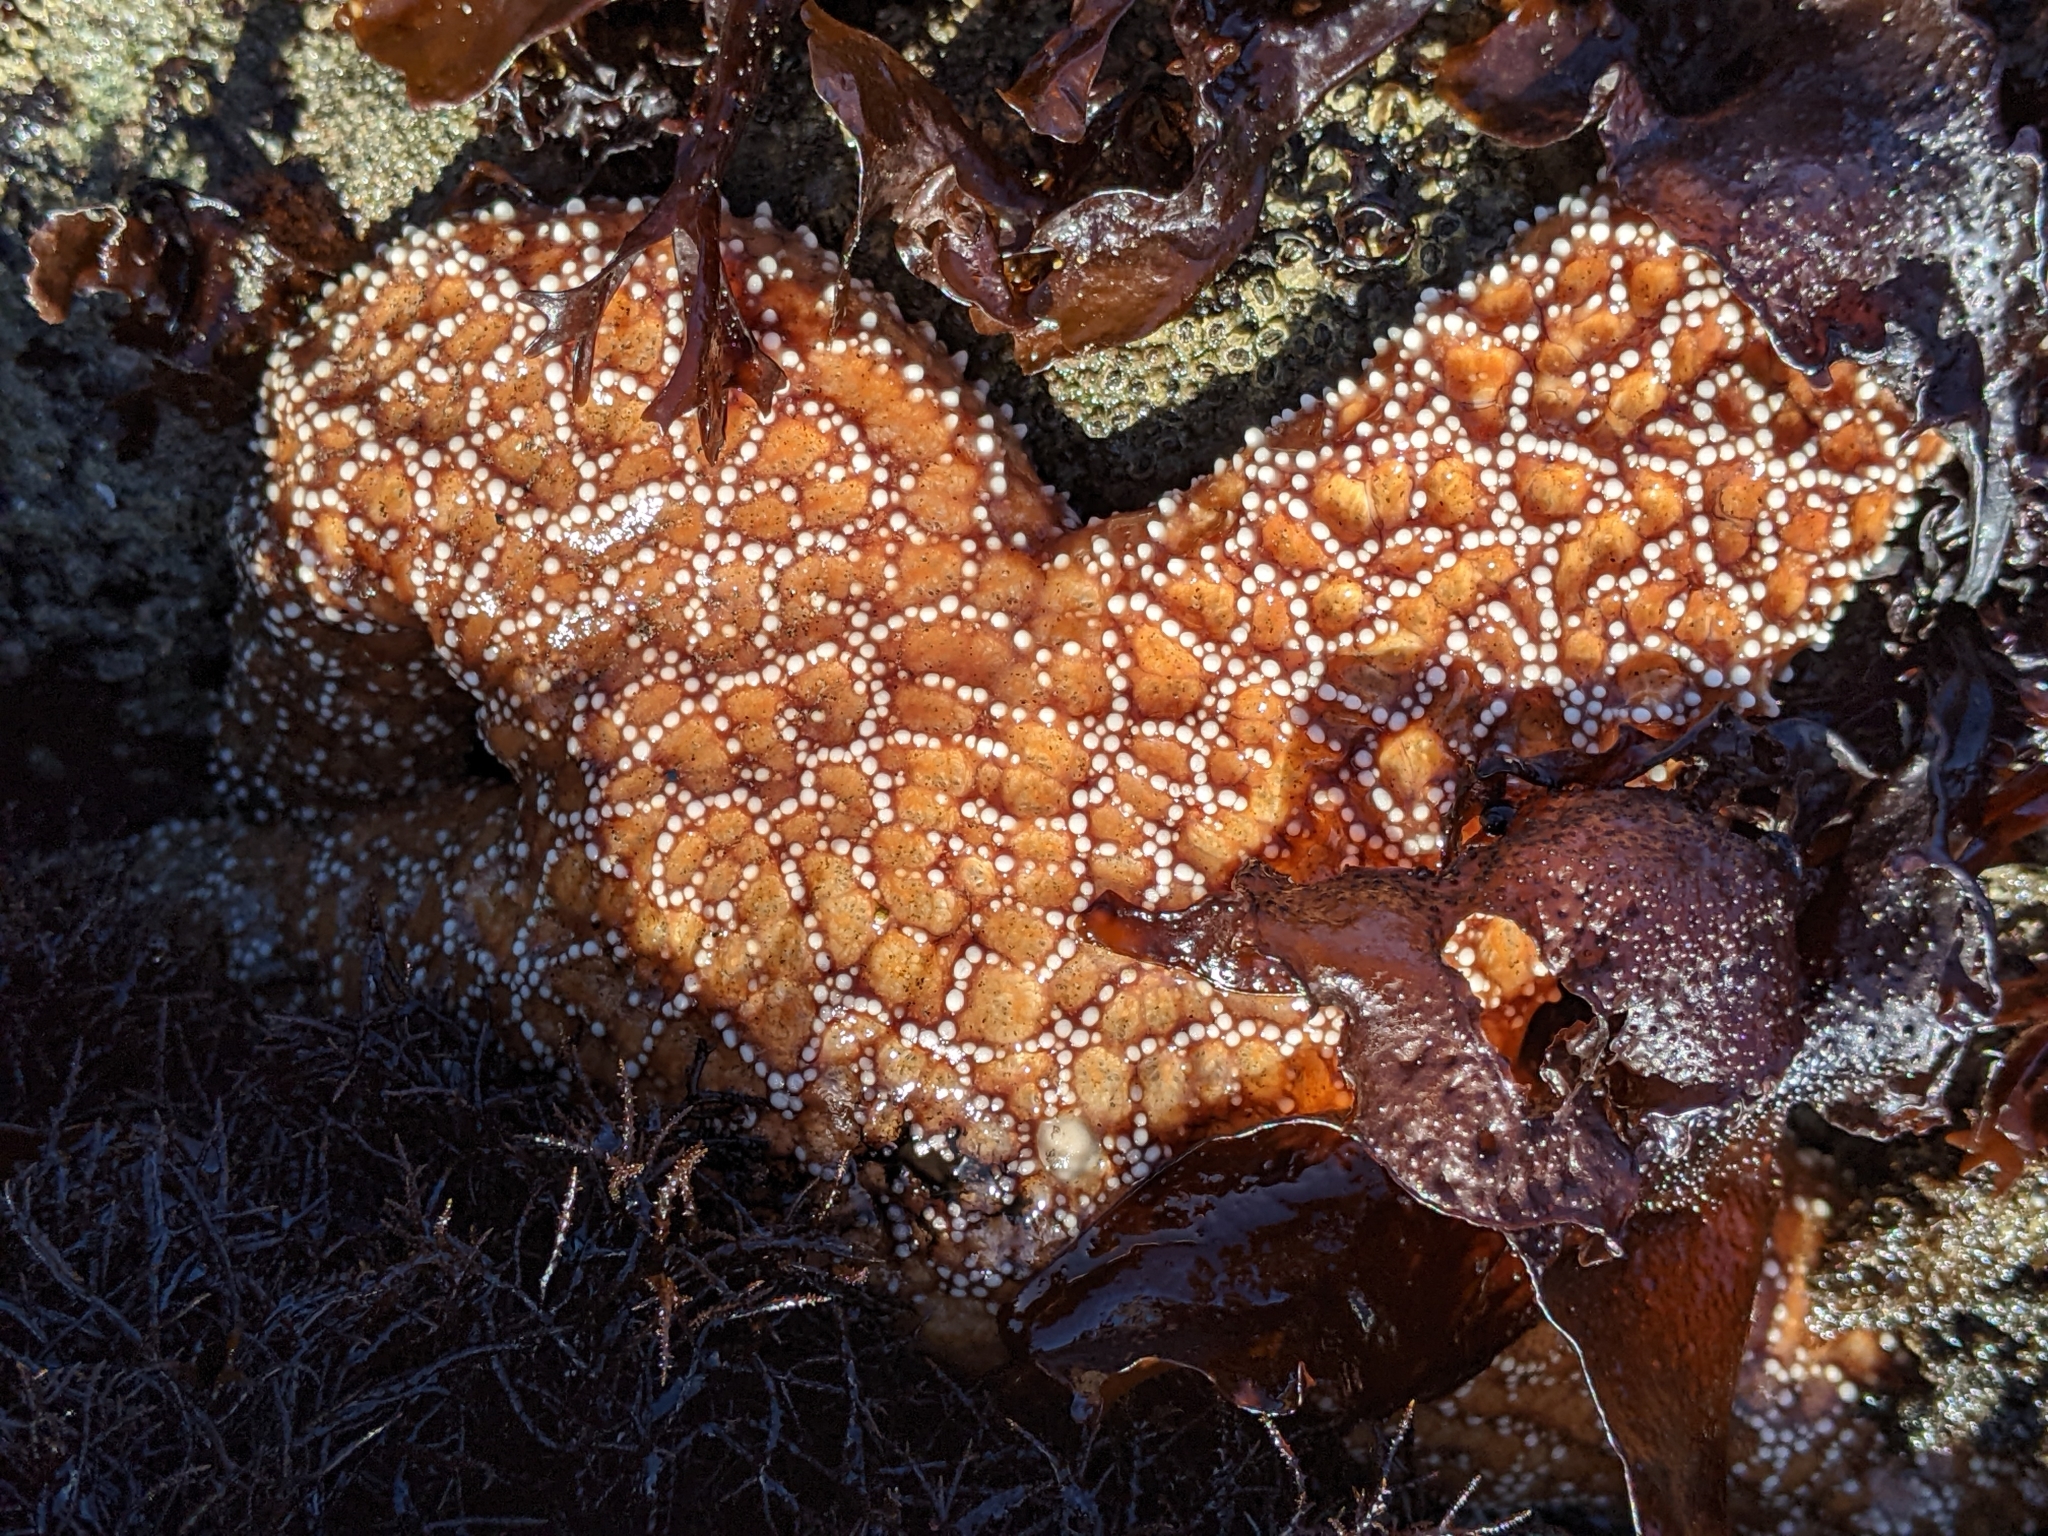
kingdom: Animalia
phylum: Echinodermata
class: Asteroidea
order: Forcipulatida
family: Asteriidae
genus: Pisaster
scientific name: Pisaster ochraceus
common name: Ochre stars
